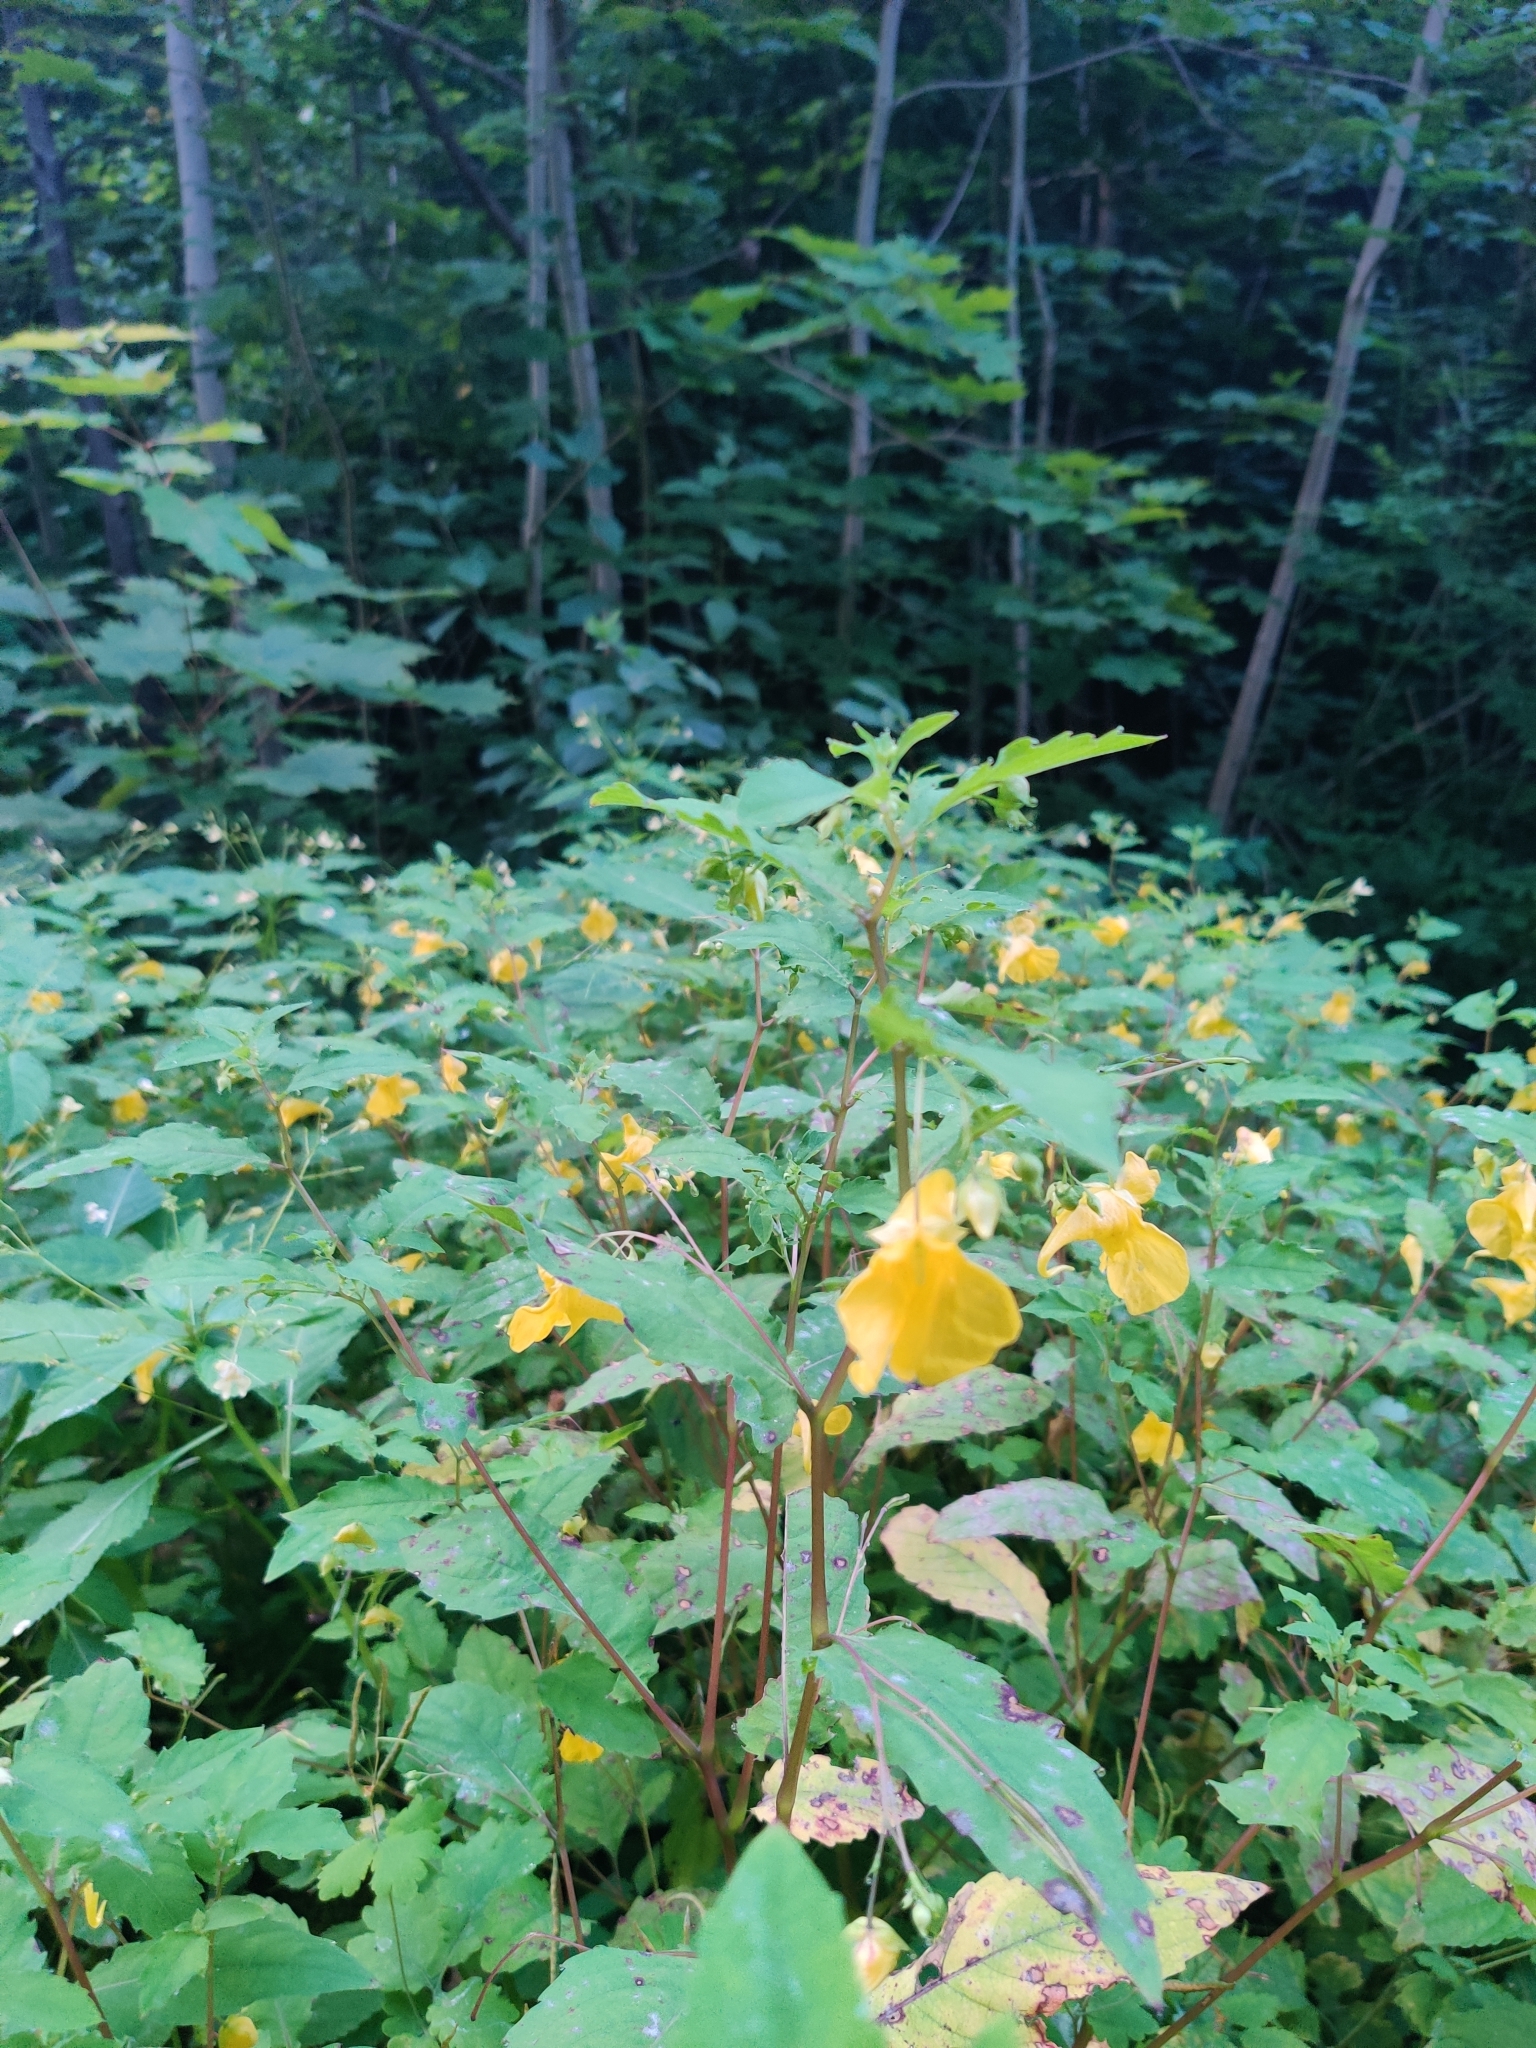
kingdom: Plantae
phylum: Tracheophyta
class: Magnoliopsida
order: Ericales
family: Balsaminaceae
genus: Impatiens
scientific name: Impatiens noli-tangere
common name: Touch-me-not balsam
